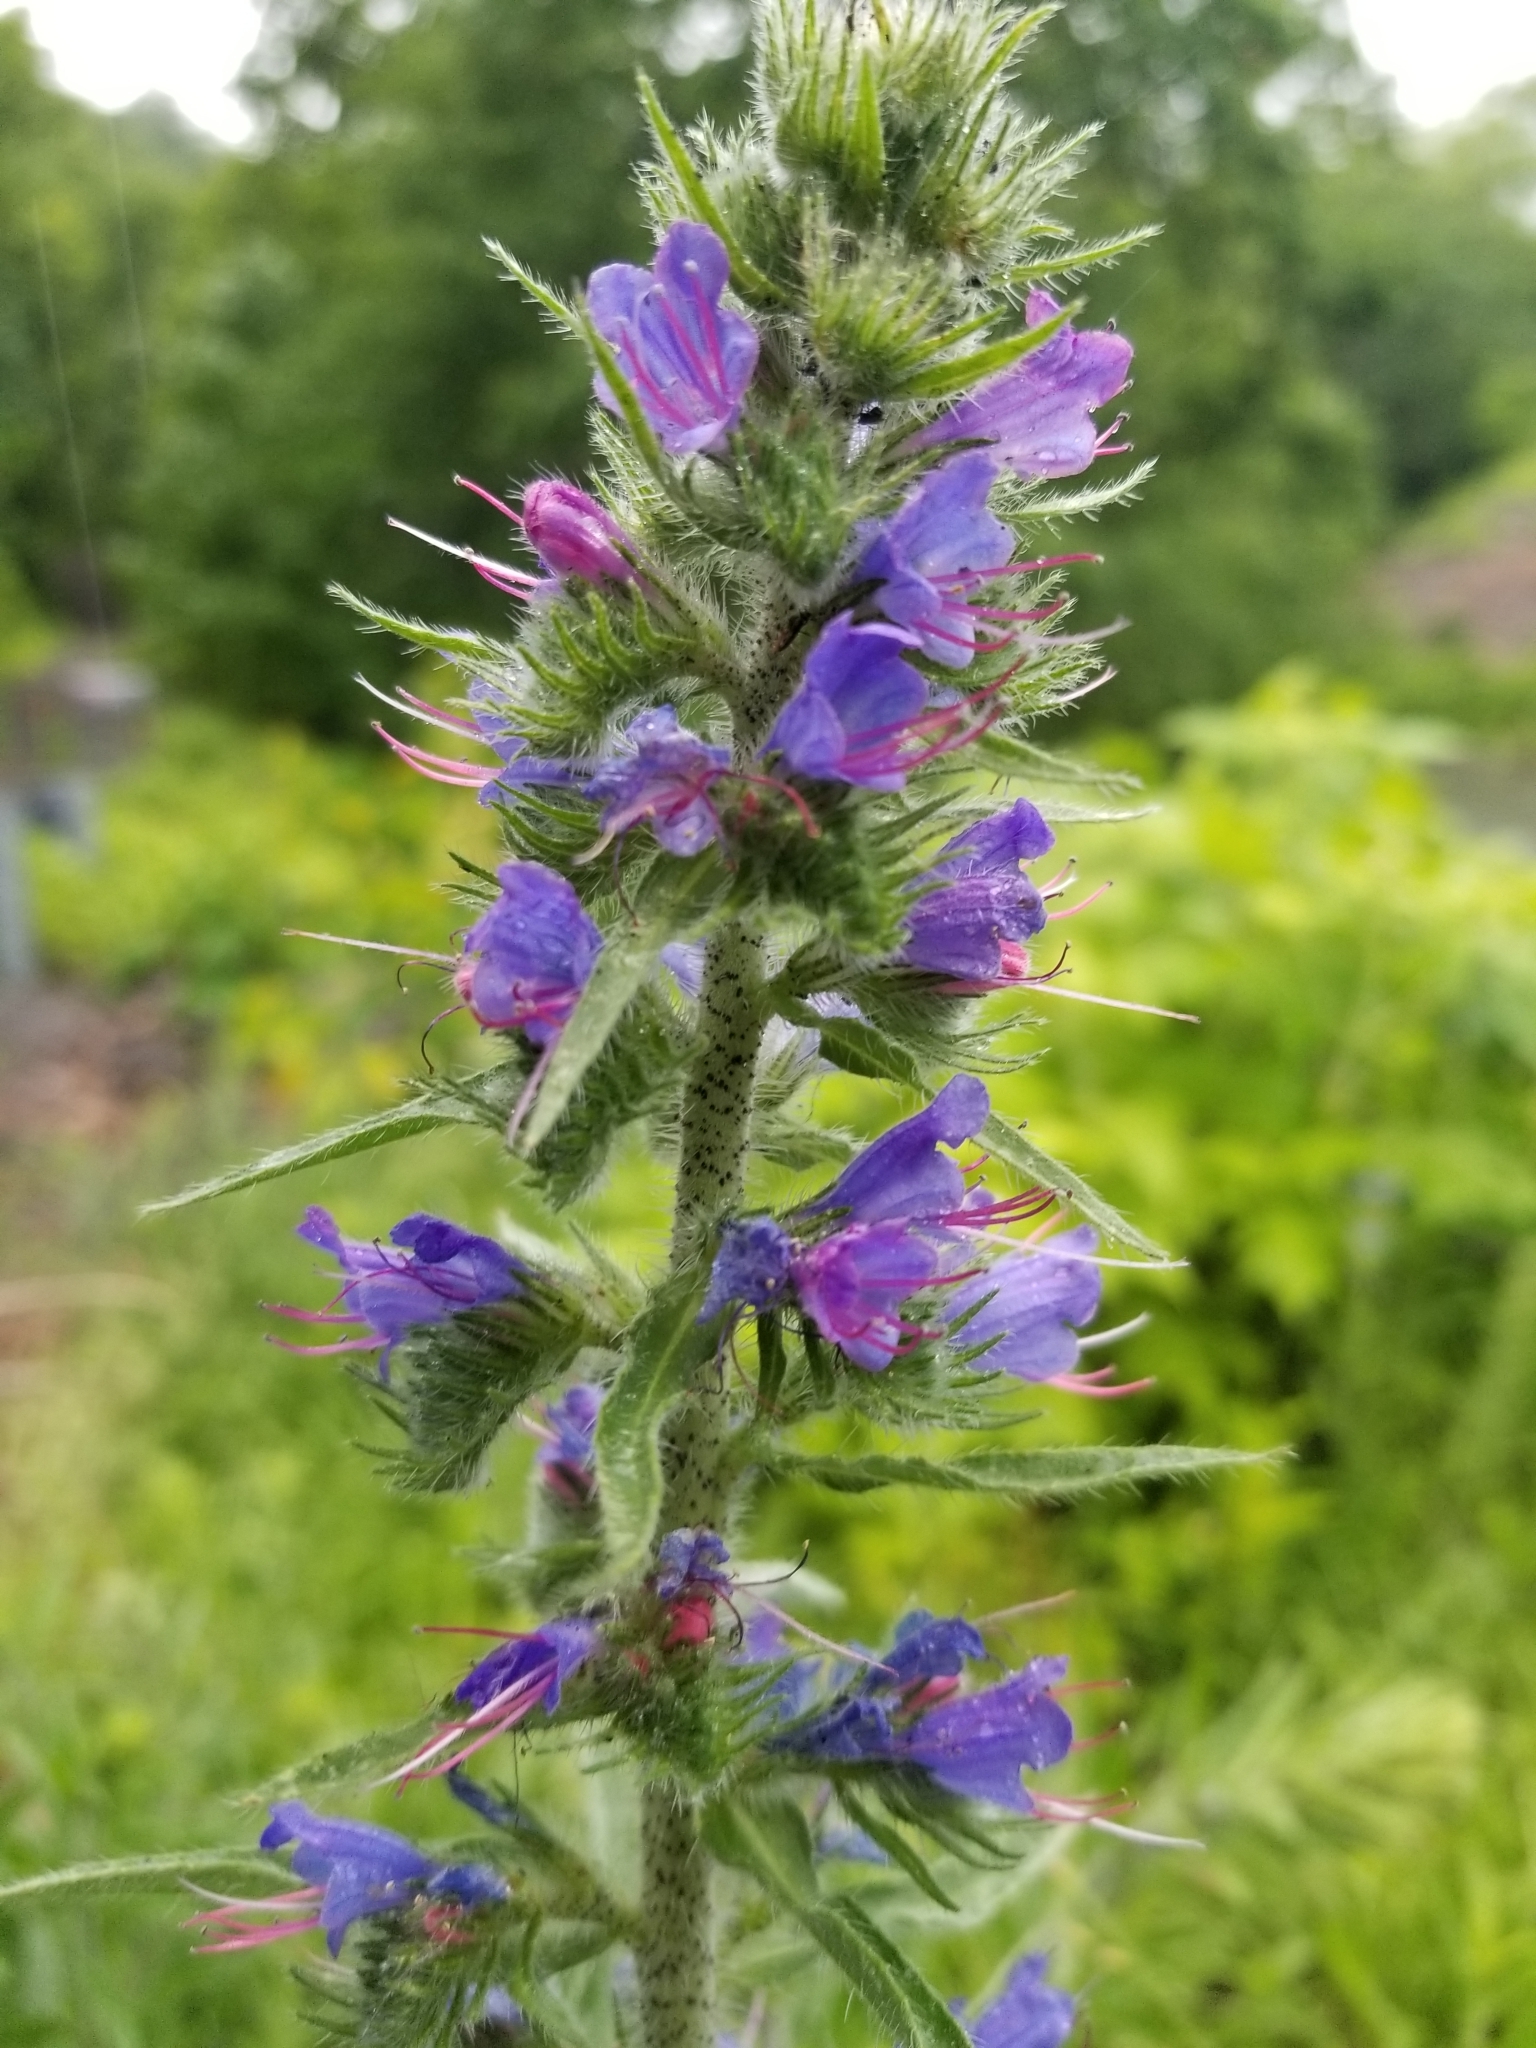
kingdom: Plantae
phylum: Tracheophyta
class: Magnoliopsida
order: Boraginales
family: Boraginaceae
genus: Echium
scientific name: Echium vulgare
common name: Common viper's bugloss
